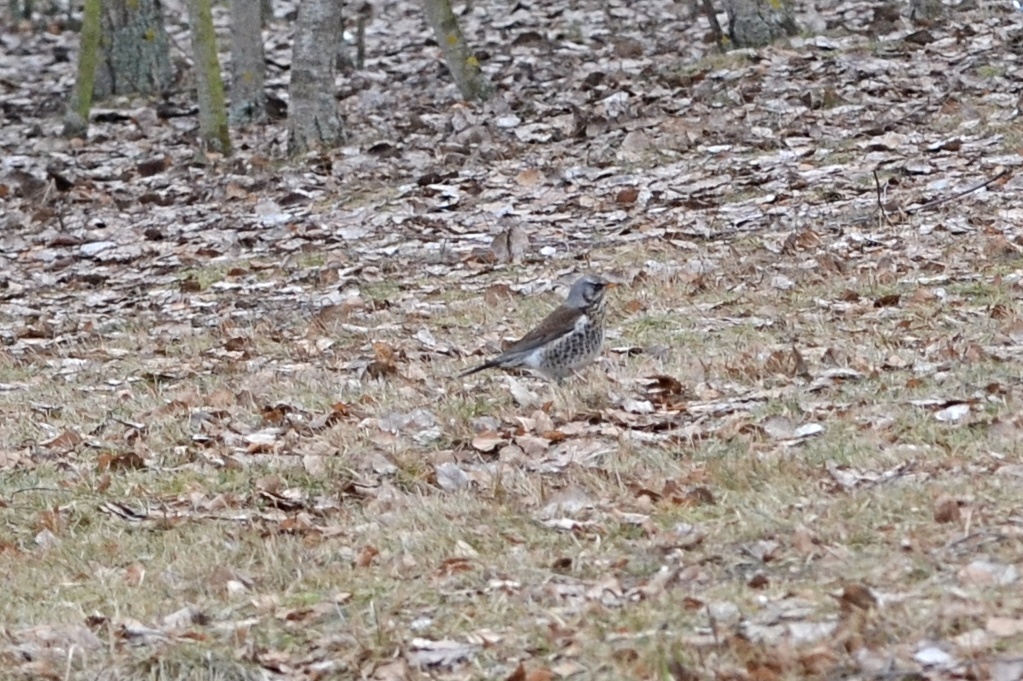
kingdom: Animalia
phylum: Chordata
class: Aves
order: Passeriformes
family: Turdidae
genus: Turdus
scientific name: Turdus pilaris
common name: Fieldfare
